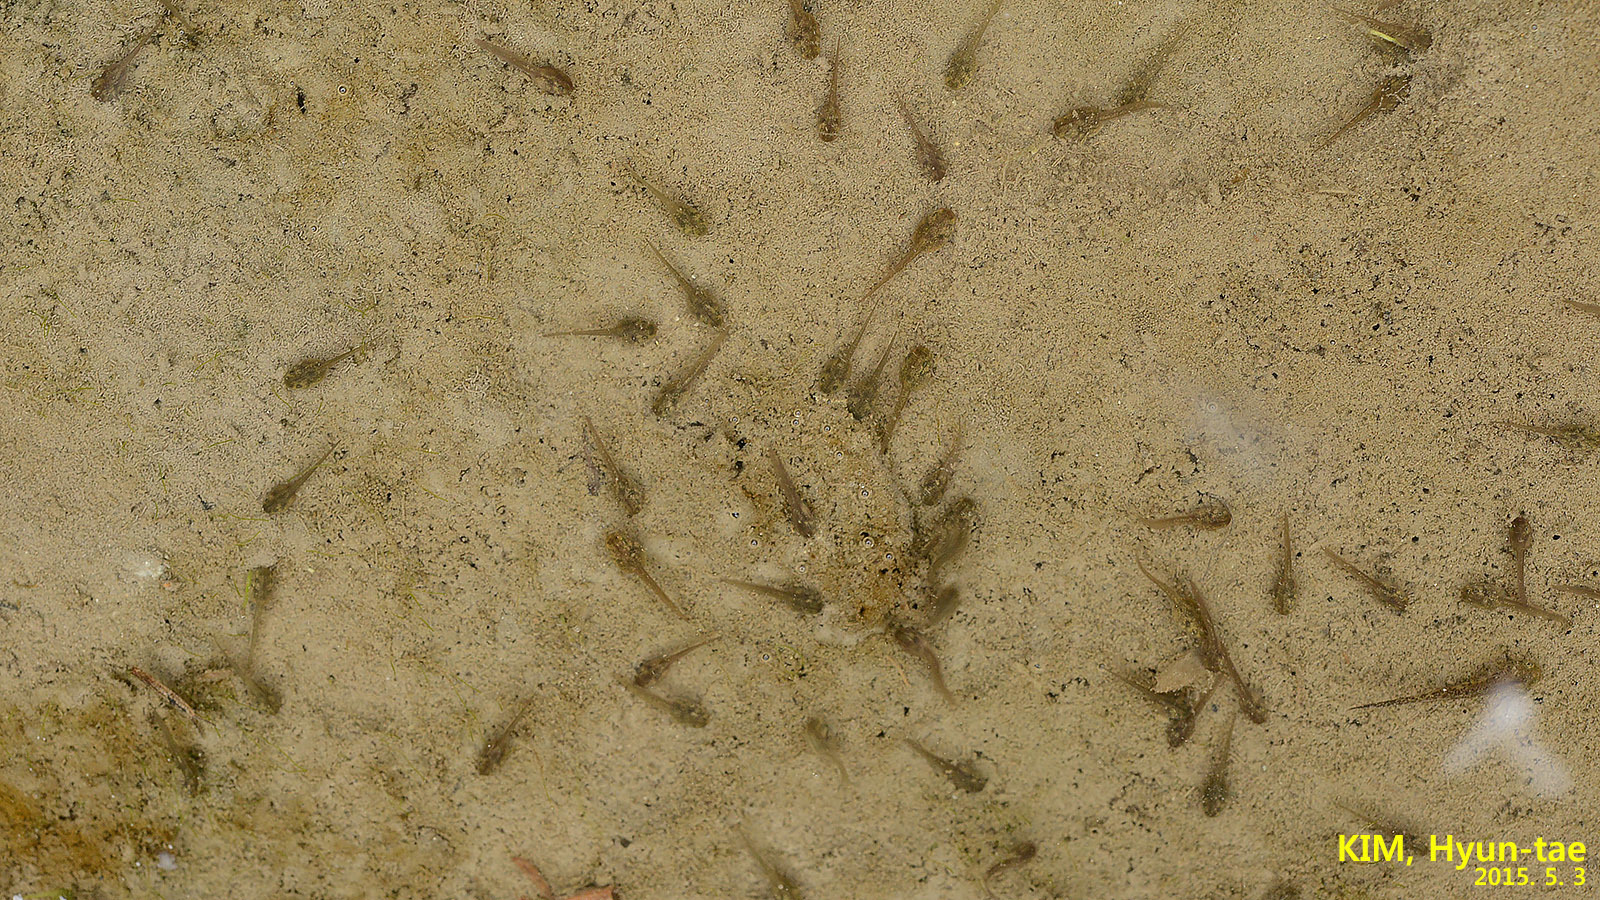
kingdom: Animalia
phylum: Chordata
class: Amphibia
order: Anura
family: Ranidae
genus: Pelophylax
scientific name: Pelophylax nigromaculatus
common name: Black-spotted pond frog
